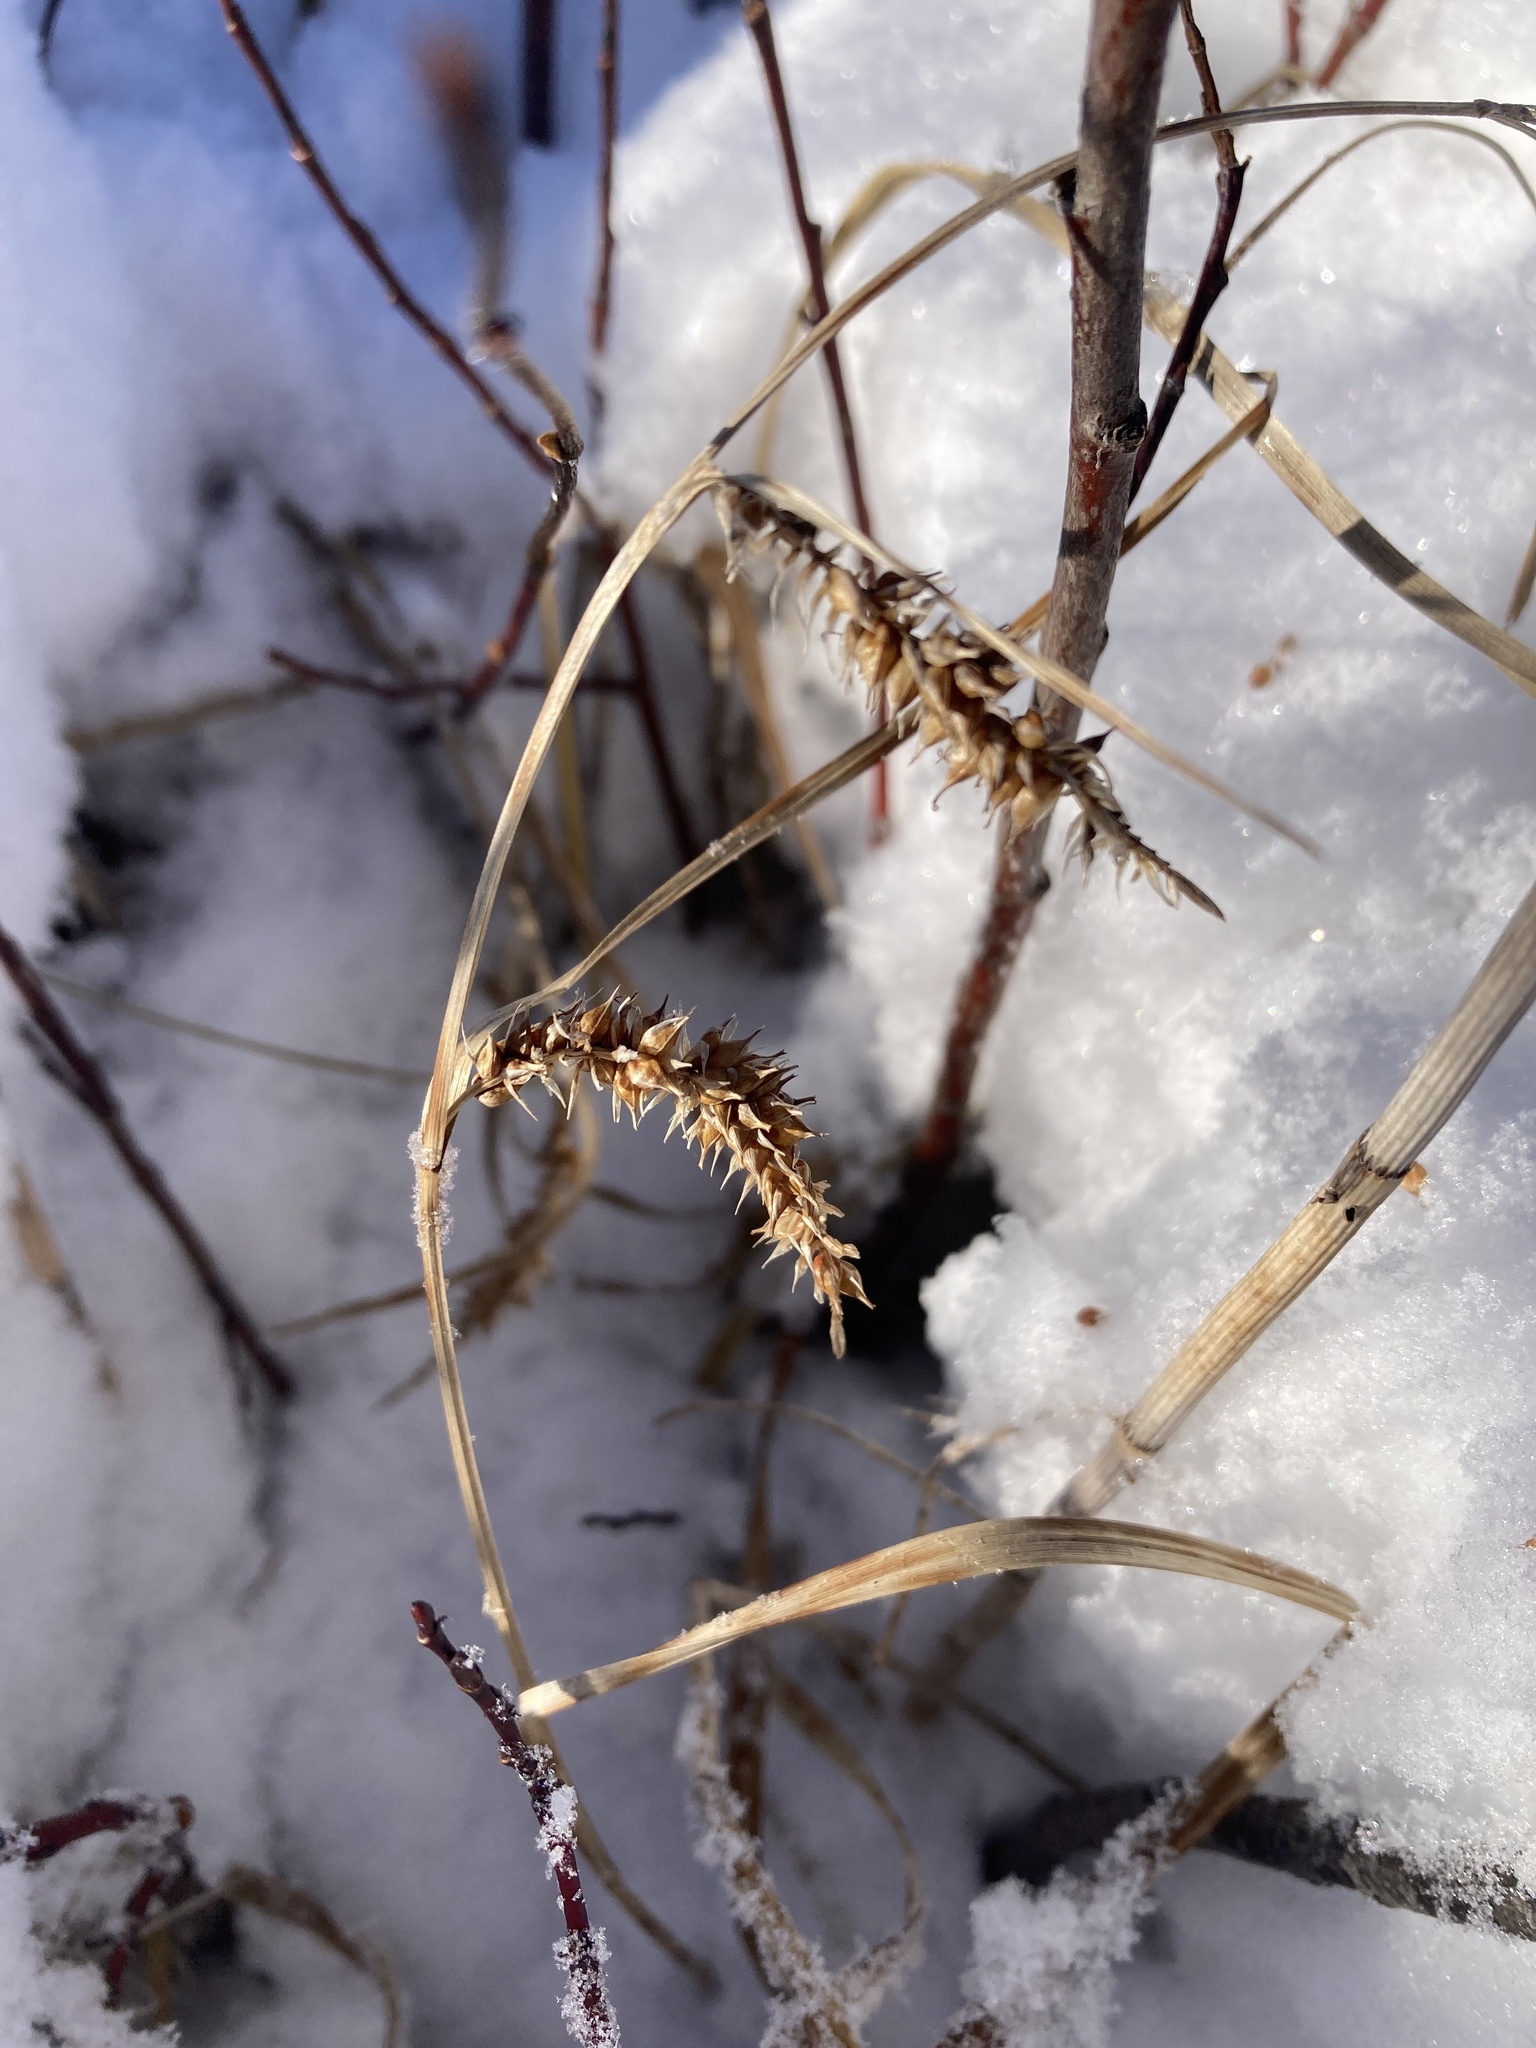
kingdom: Plantae
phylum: Tracheophyta
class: Liliopsida
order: Poales
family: Cyperaceae
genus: Carex
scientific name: Carex utriculata
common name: Beaked sedge
